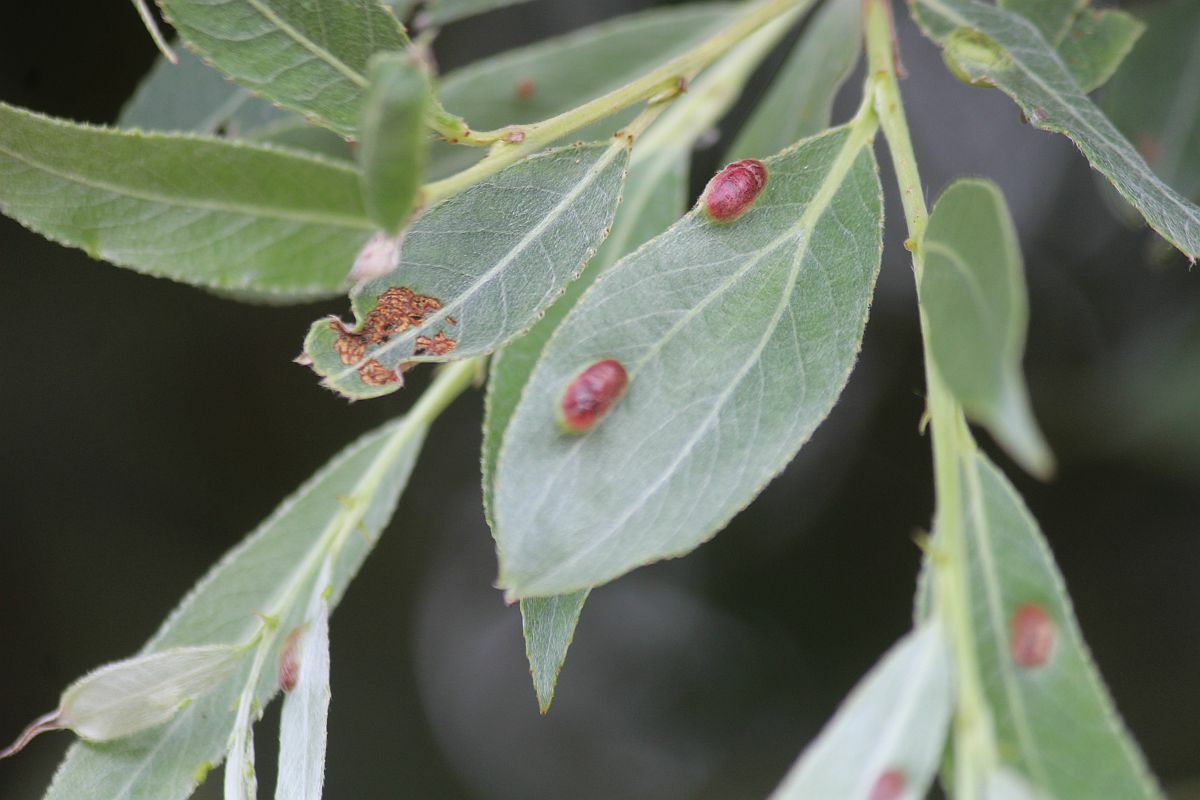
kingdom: Animalia
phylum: Arthropoda
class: Insecta
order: Hymenoptera
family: Tenthredinidae
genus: Pontania
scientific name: Pontania proxima
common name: Common sawfly
